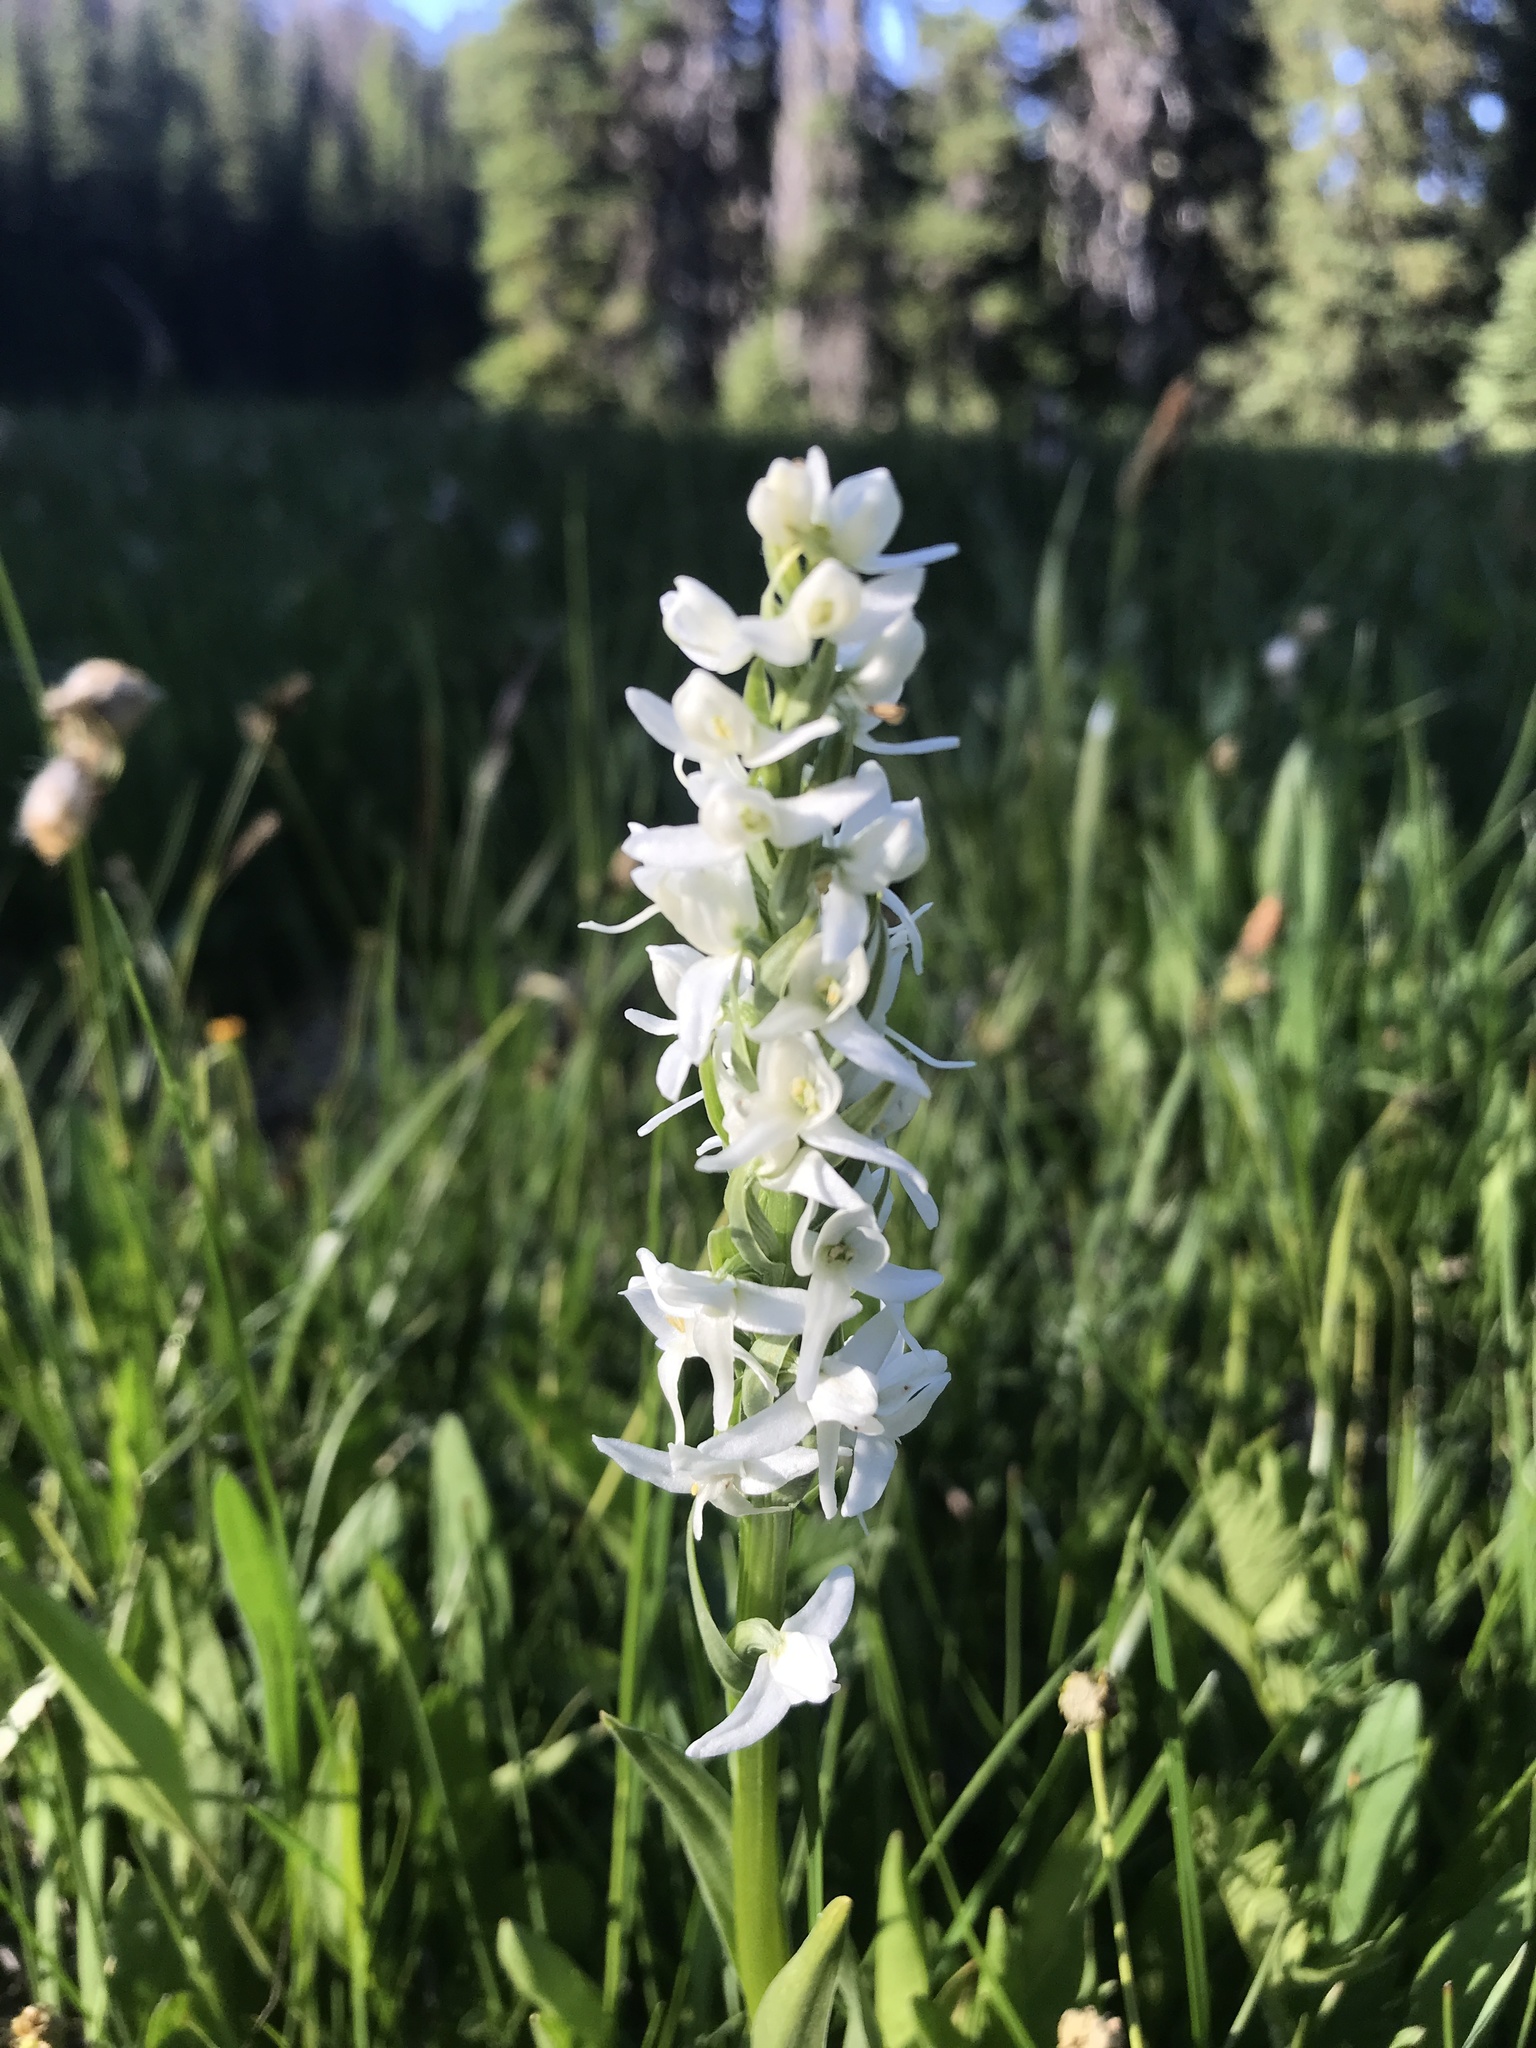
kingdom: Plantae
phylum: Tracheophyta
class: Liliopsida
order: Asparagales
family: Orchidaceae
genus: Platanthera
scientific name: Platanthera dilatata
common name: Bog candles
